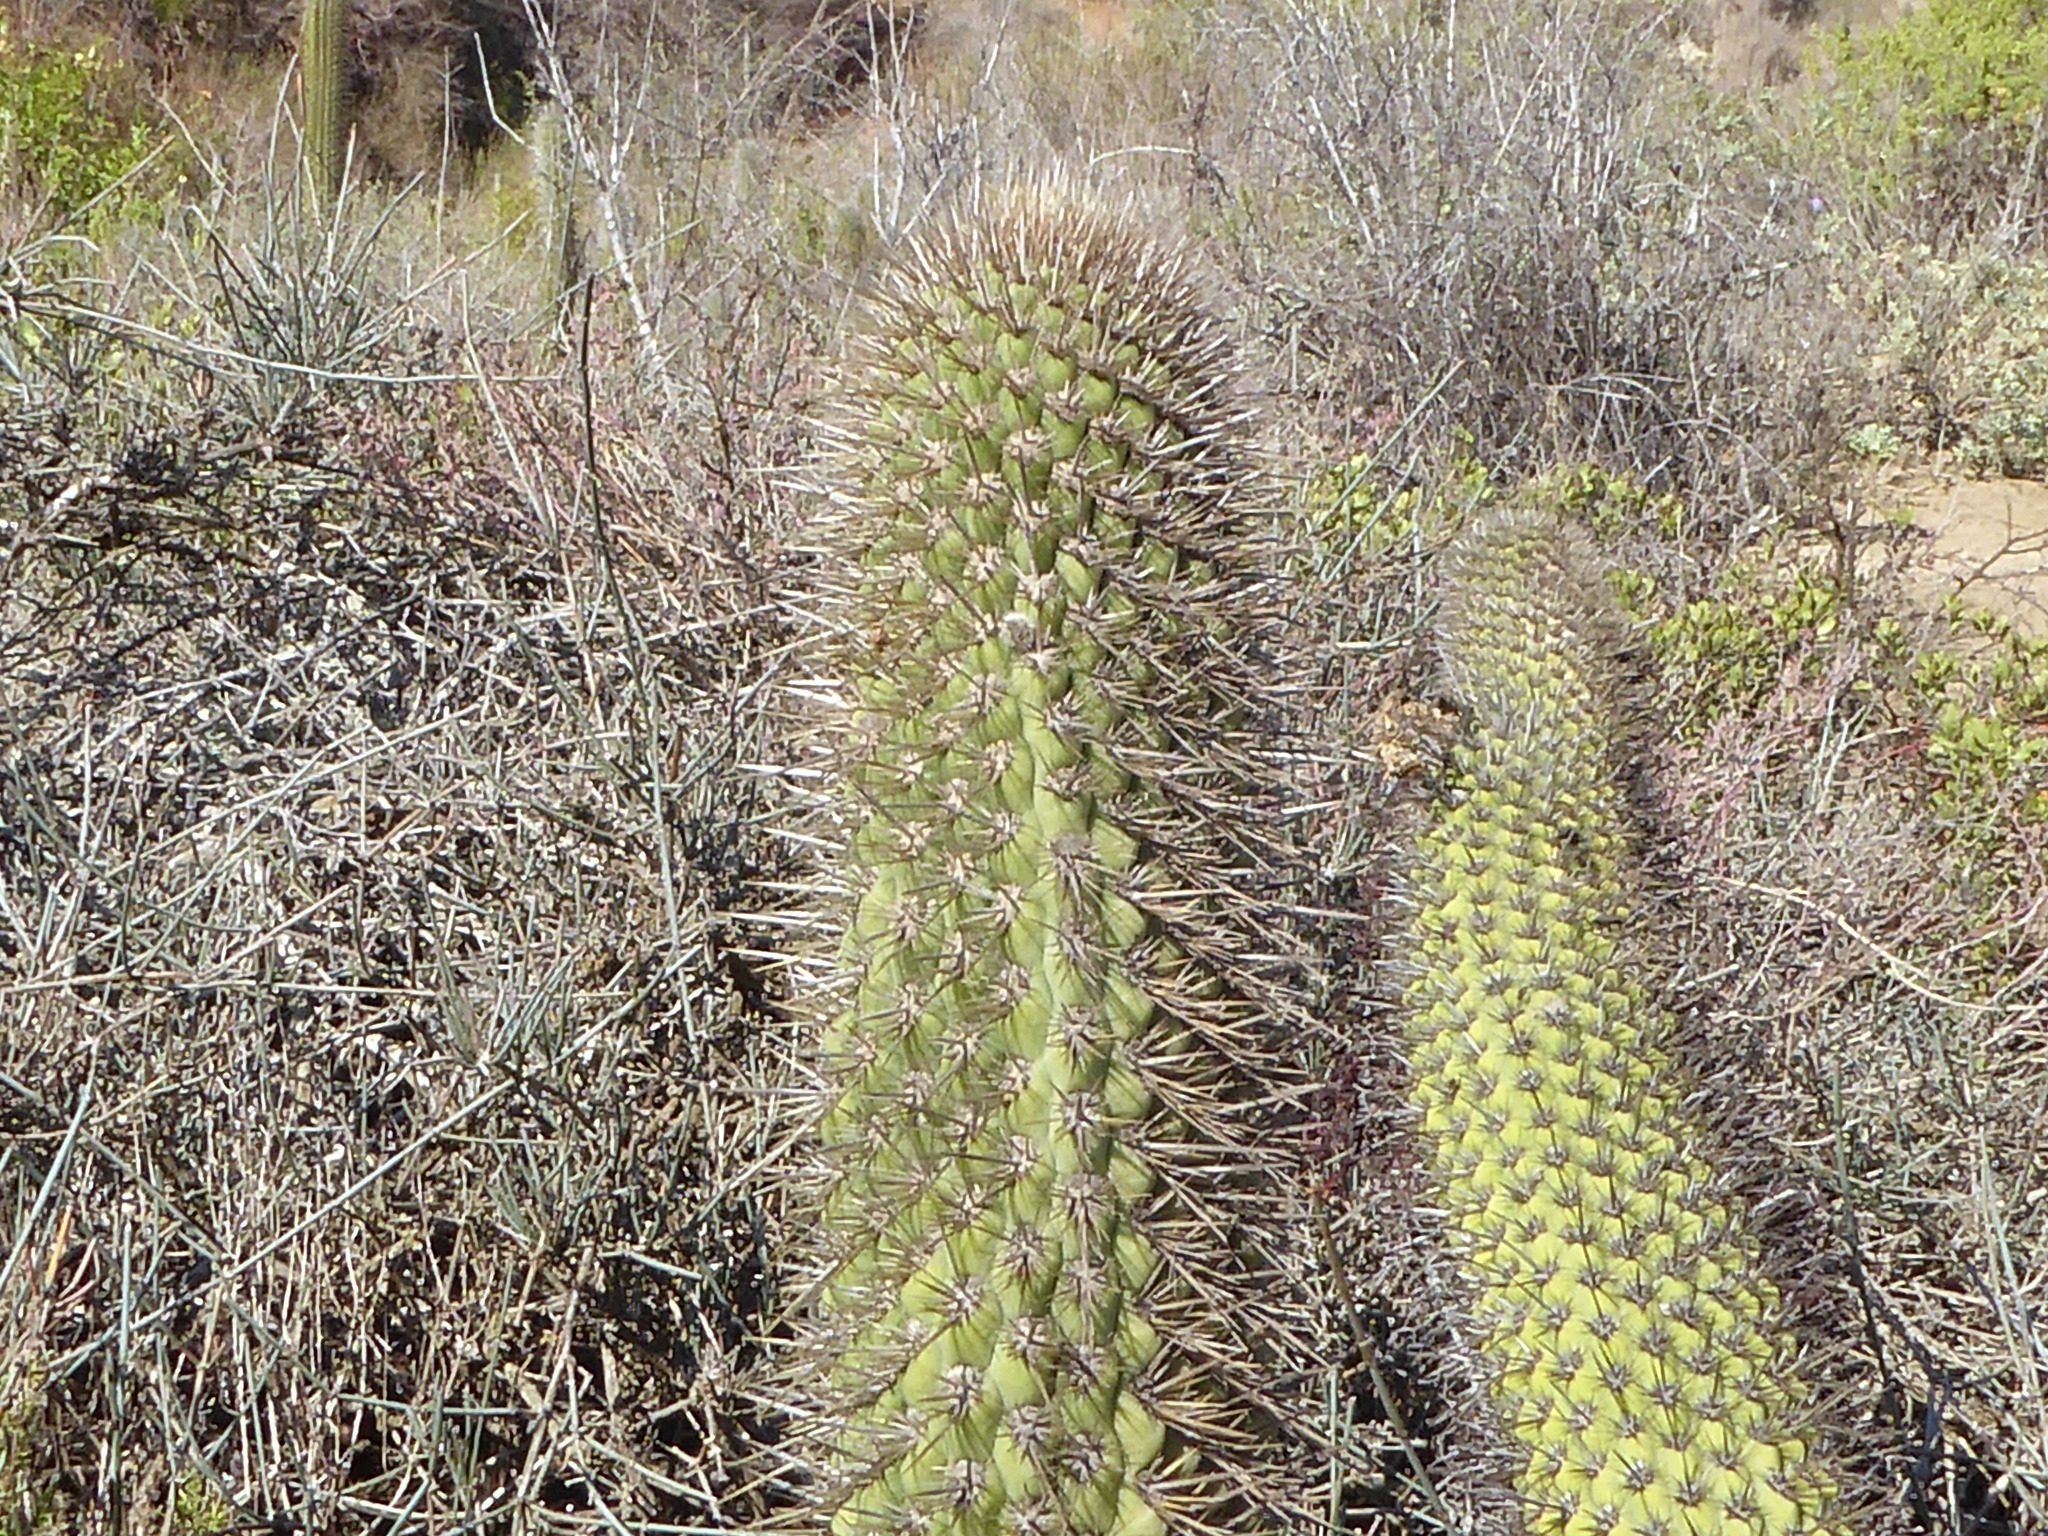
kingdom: Plantae
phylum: Tracheophyta
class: Magnoliopsida
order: Caryophyllales
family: Cactaceae
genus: Leucostele
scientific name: Leucostele chiloensis
